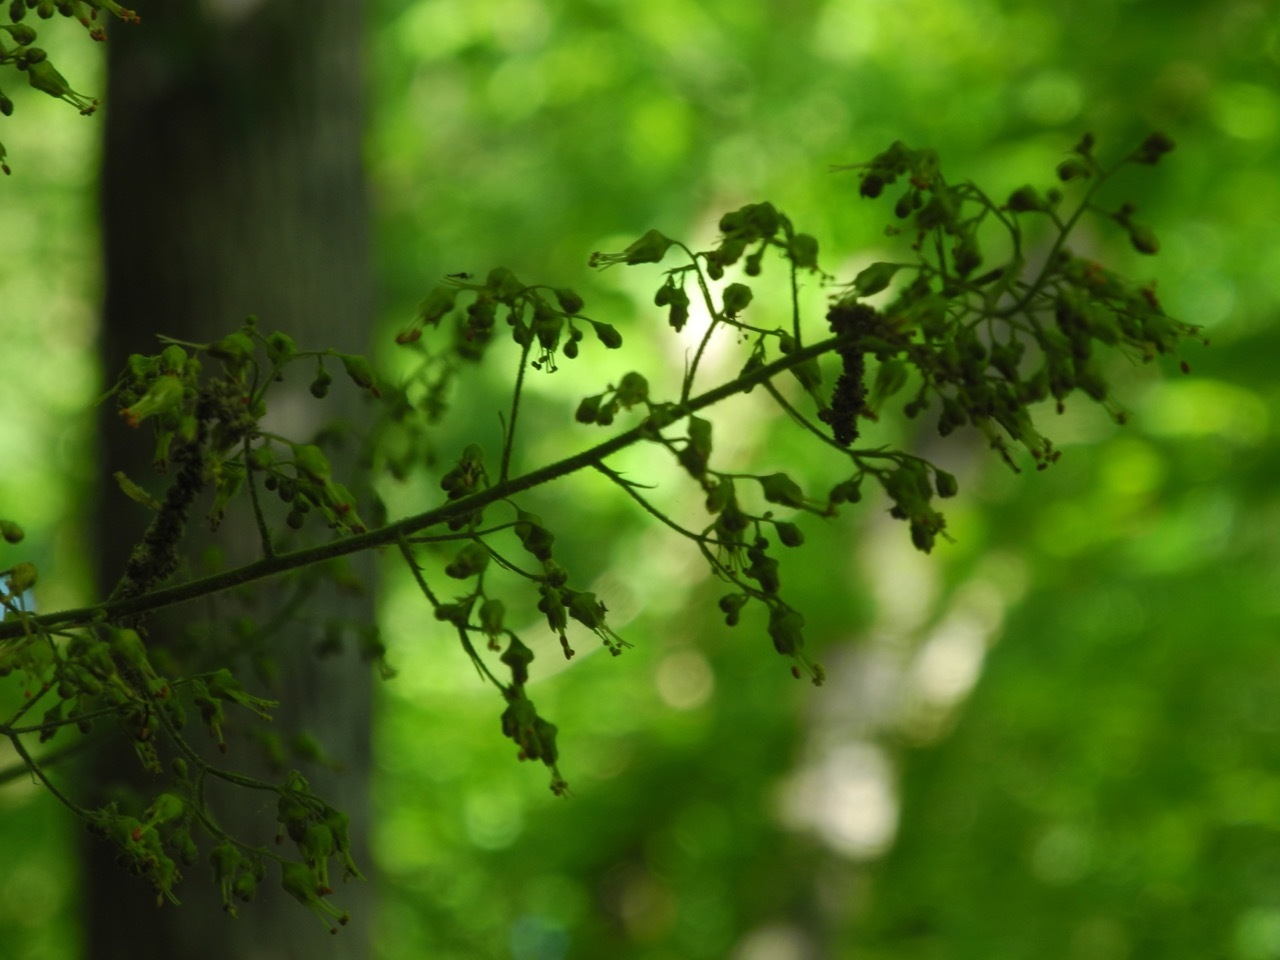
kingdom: Plantae
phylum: Tracheophyta
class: Magnoliopsida
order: Saxifragales
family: Saxifragaceae
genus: Heuchera
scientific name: Heuchera americana
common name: Alumroot
